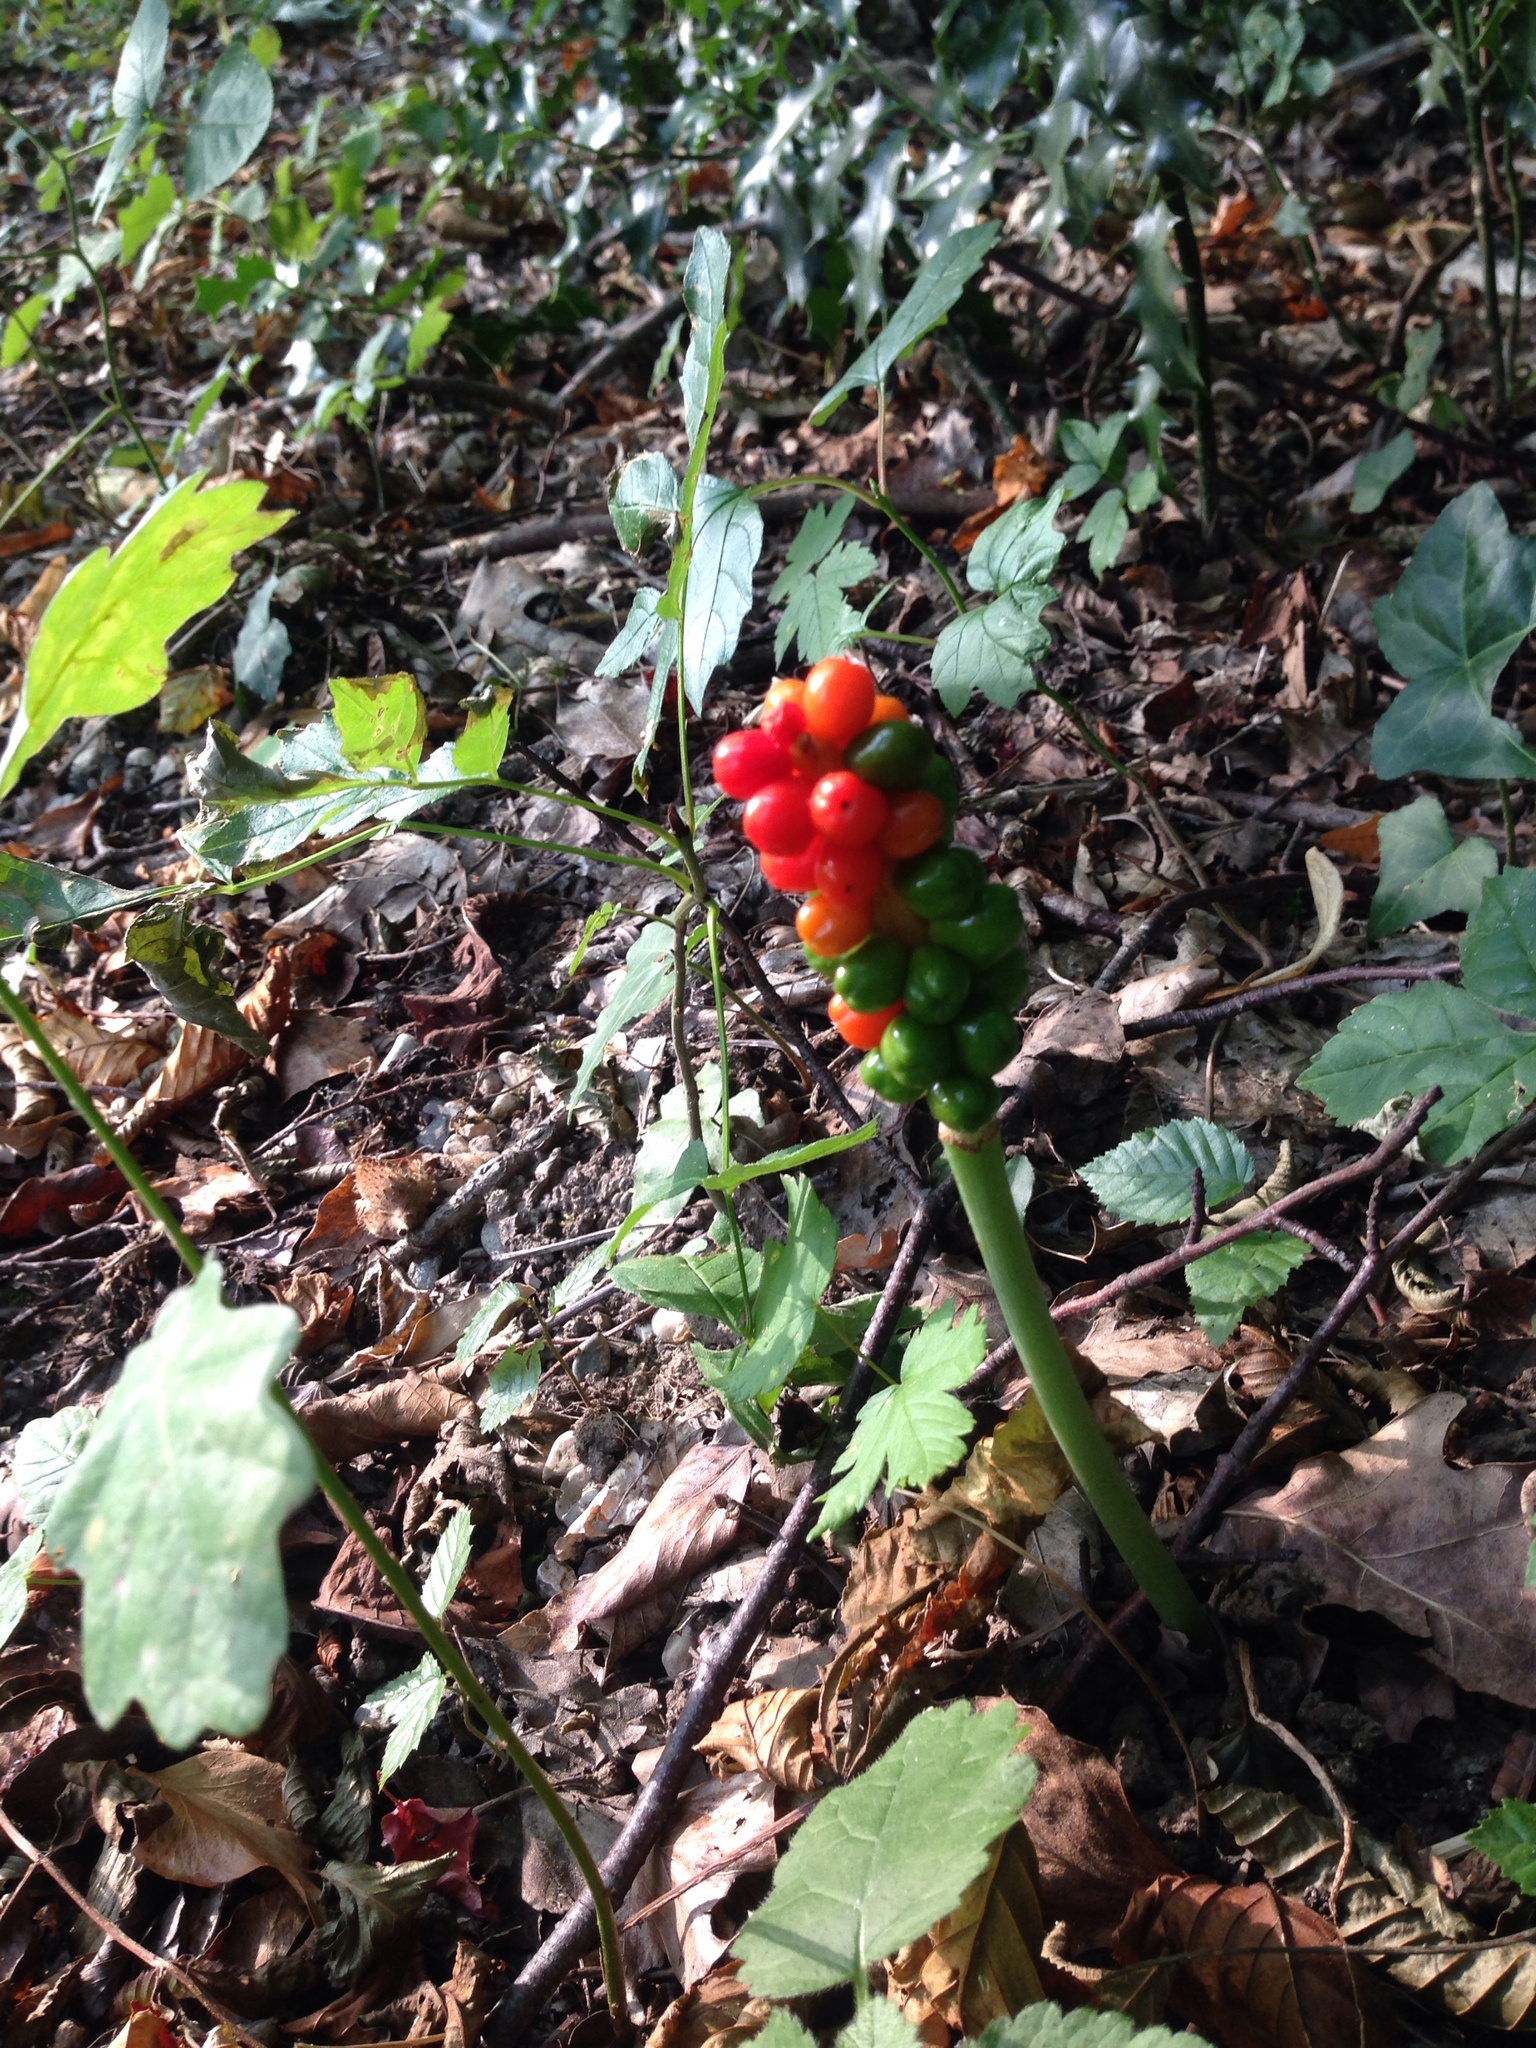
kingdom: Plantae
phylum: Tracheophyta
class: Liliopsida
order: Alismatales
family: Araceae
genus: Arum
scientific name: Arum maculatum
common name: Lords-and-ladies
